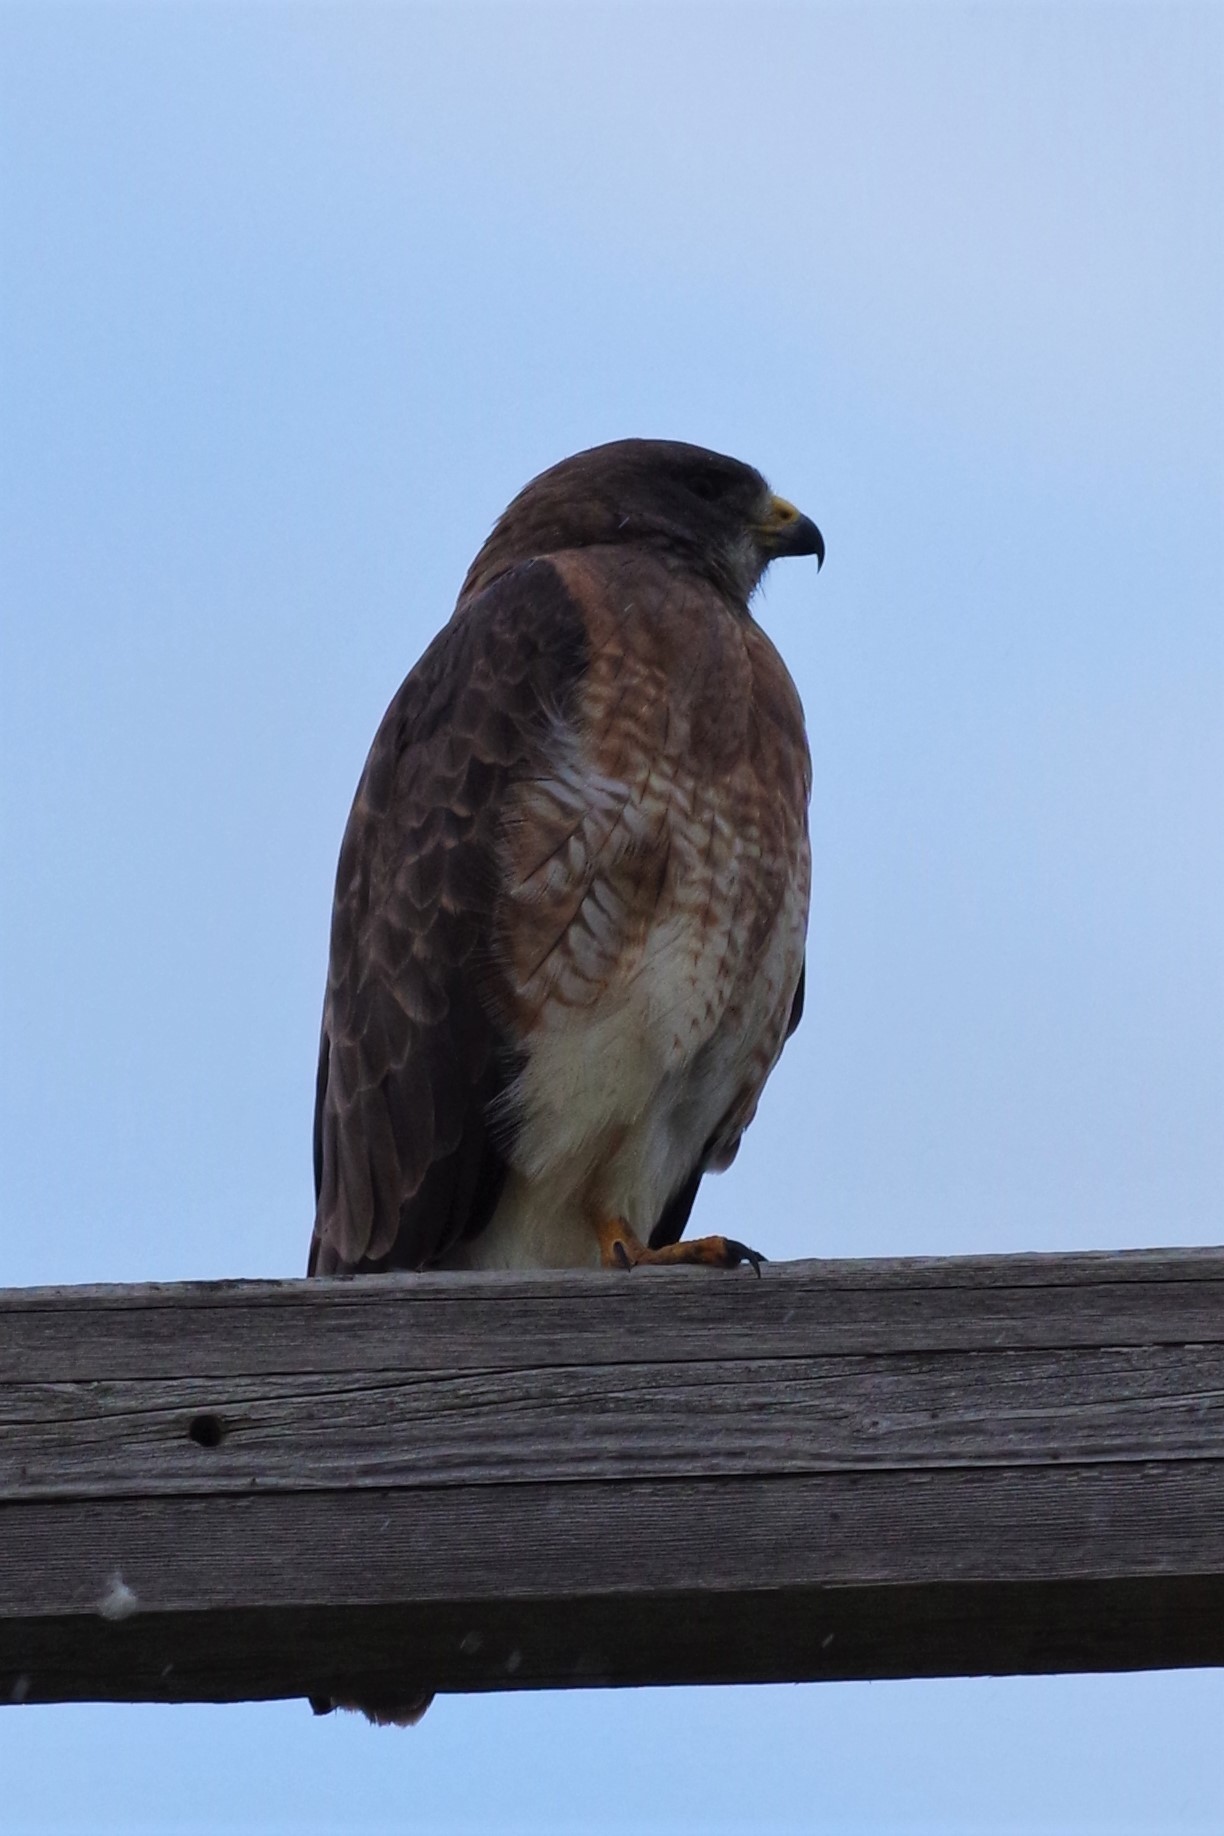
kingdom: Animalia
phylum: Chordata
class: Aves
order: Accipitriformes
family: Accipitridae
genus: Buteo
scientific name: Buteo swainsoni
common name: Swainson's hawk
